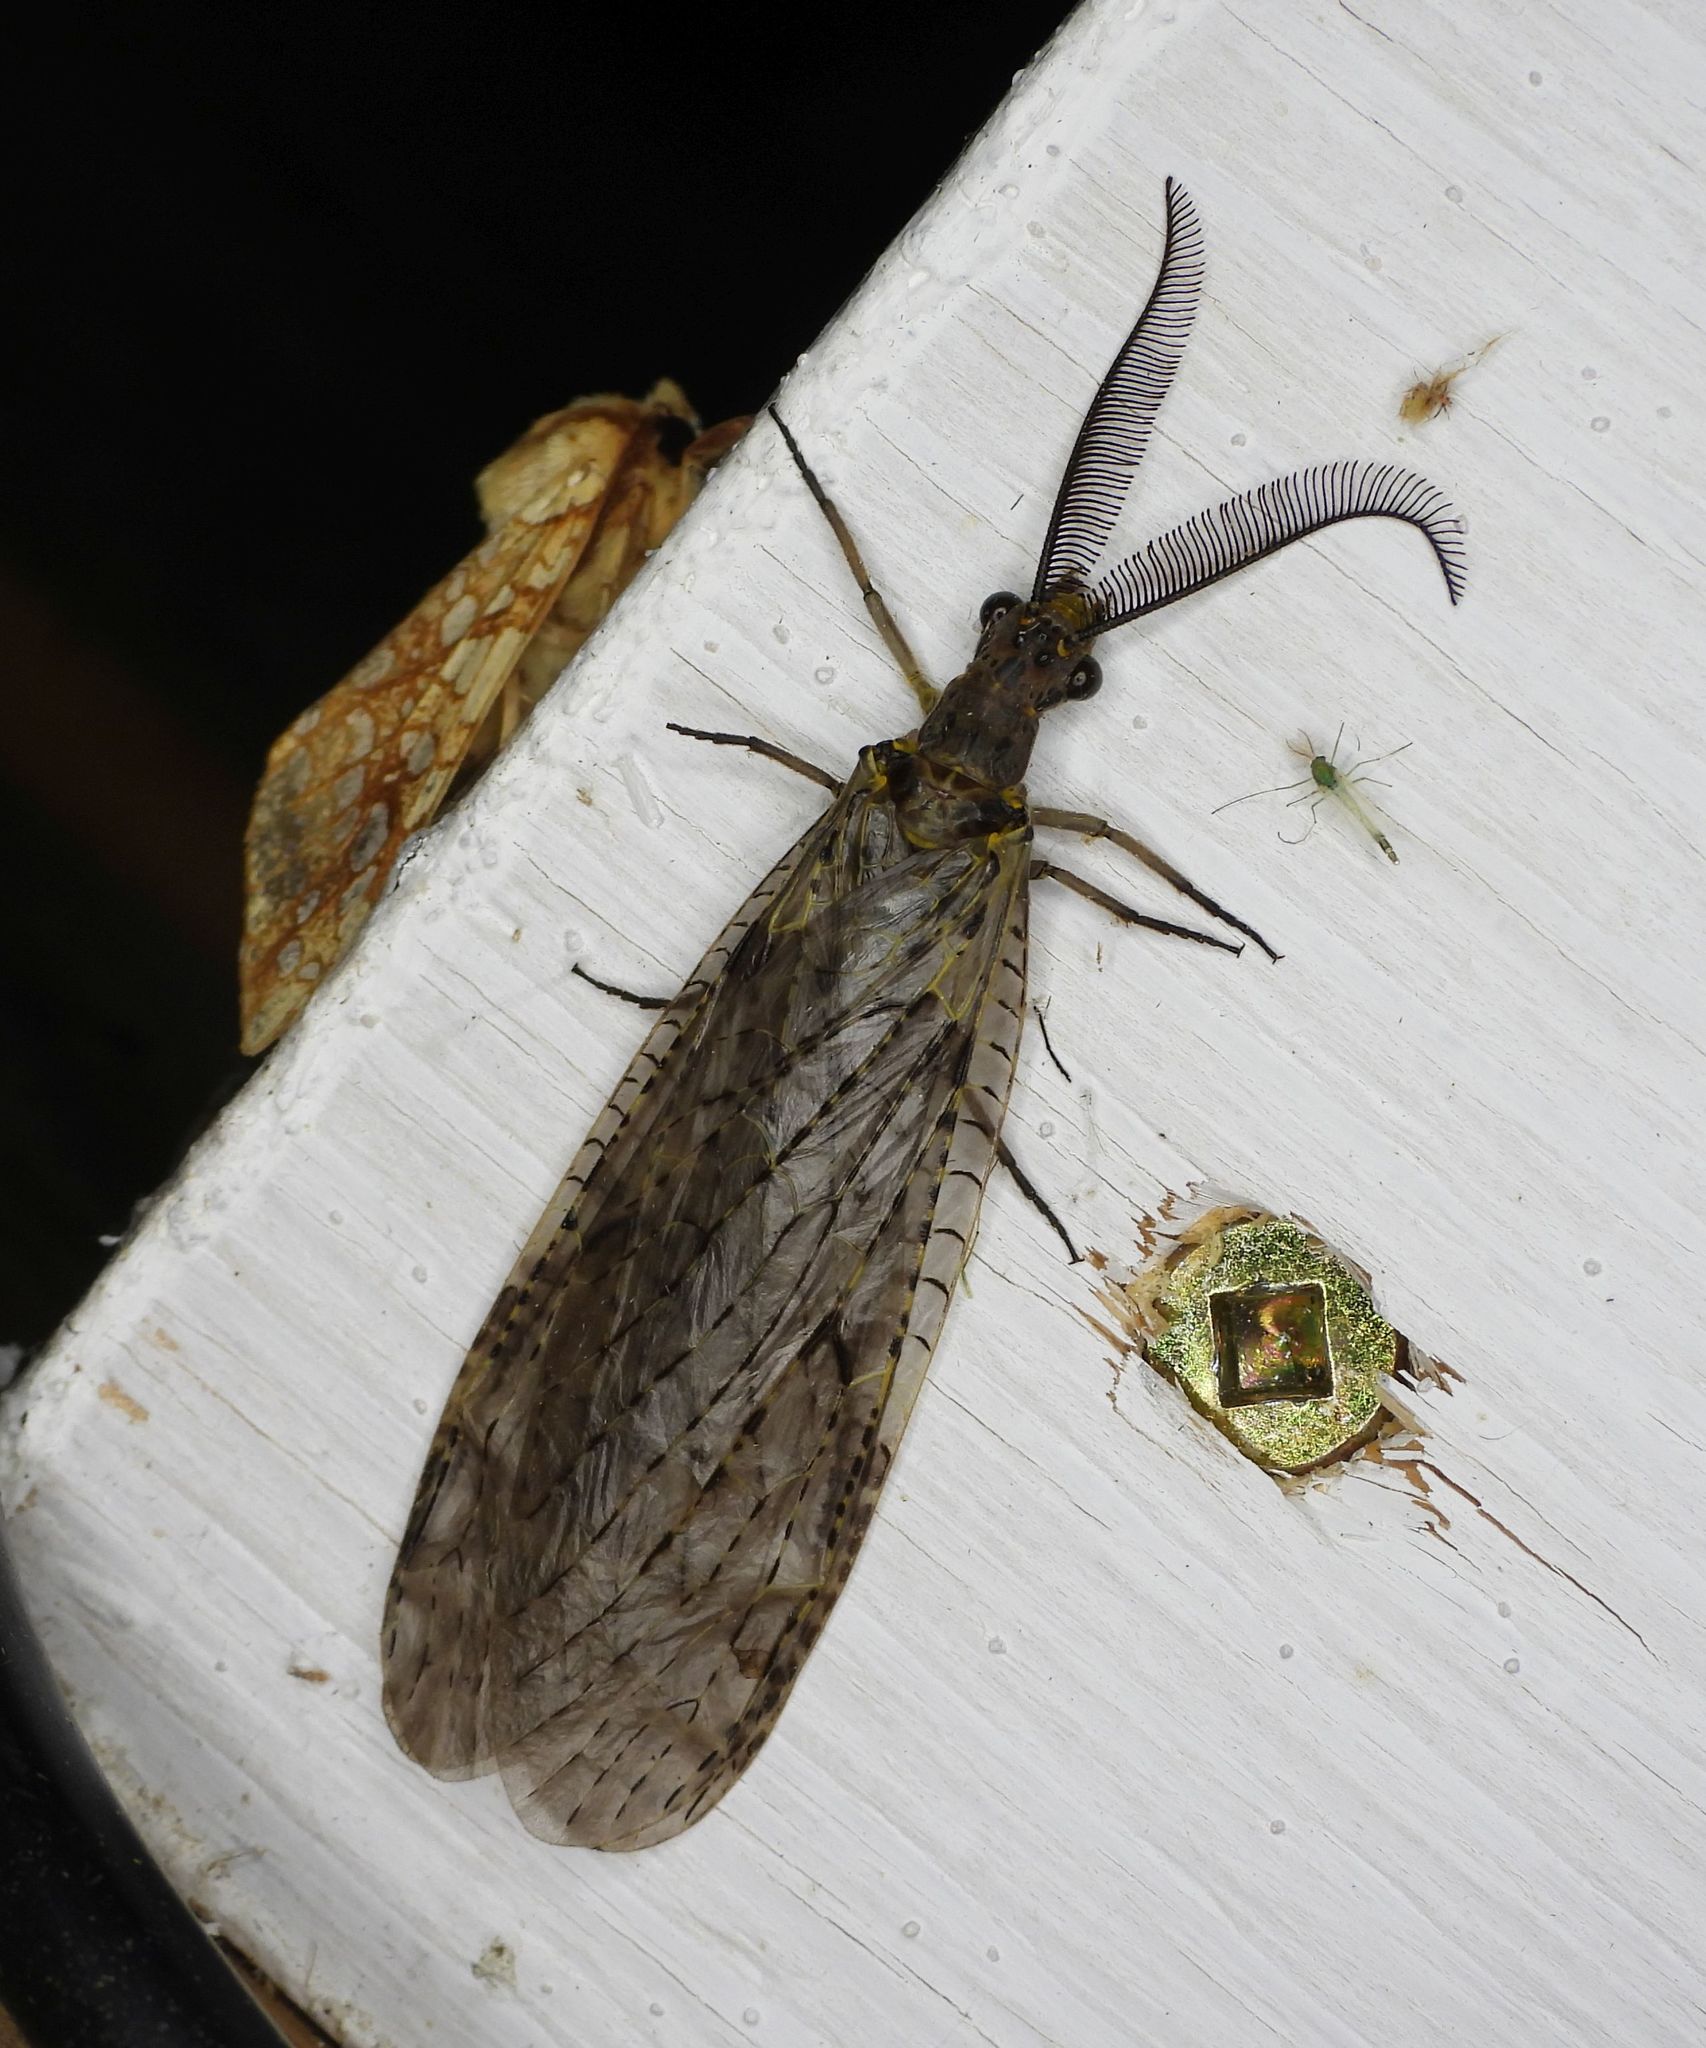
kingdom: Animalia
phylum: Arthropoda
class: Insecta
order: Megaloptera
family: Corydalidae
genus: Chauliodes
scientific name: Chauliodes rastricornis
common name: Spring fishfly
